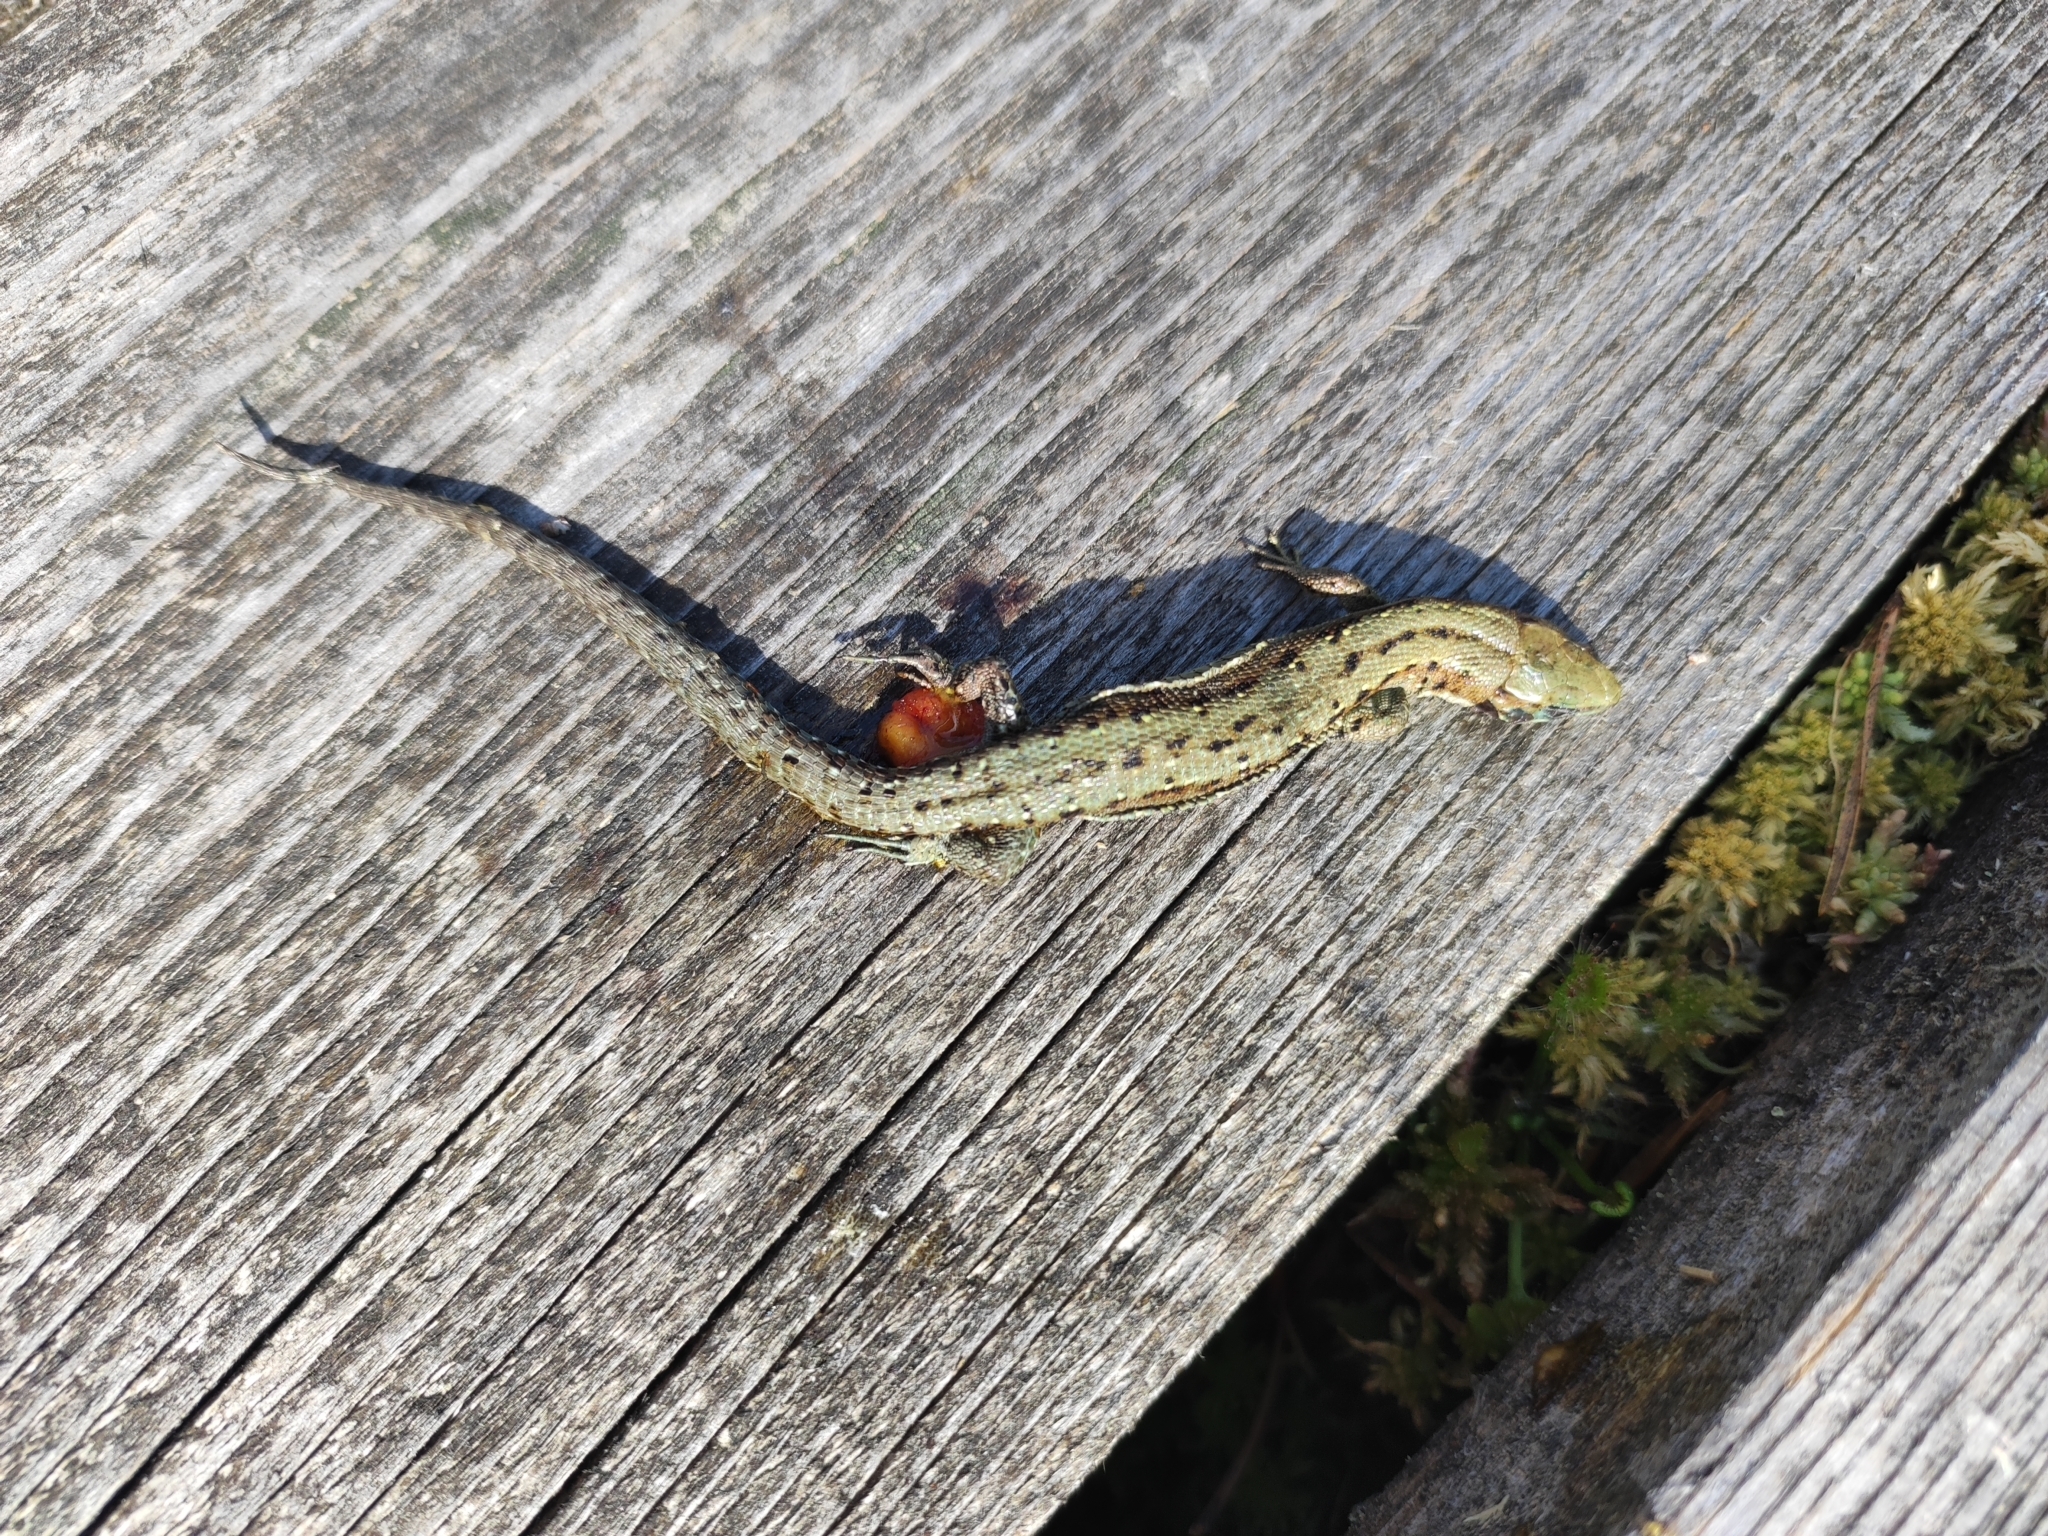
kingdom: Animalia
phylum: Chordata
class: Squamata
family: Lacertidae
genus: Zootoca
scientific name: Zootoca vivipara
